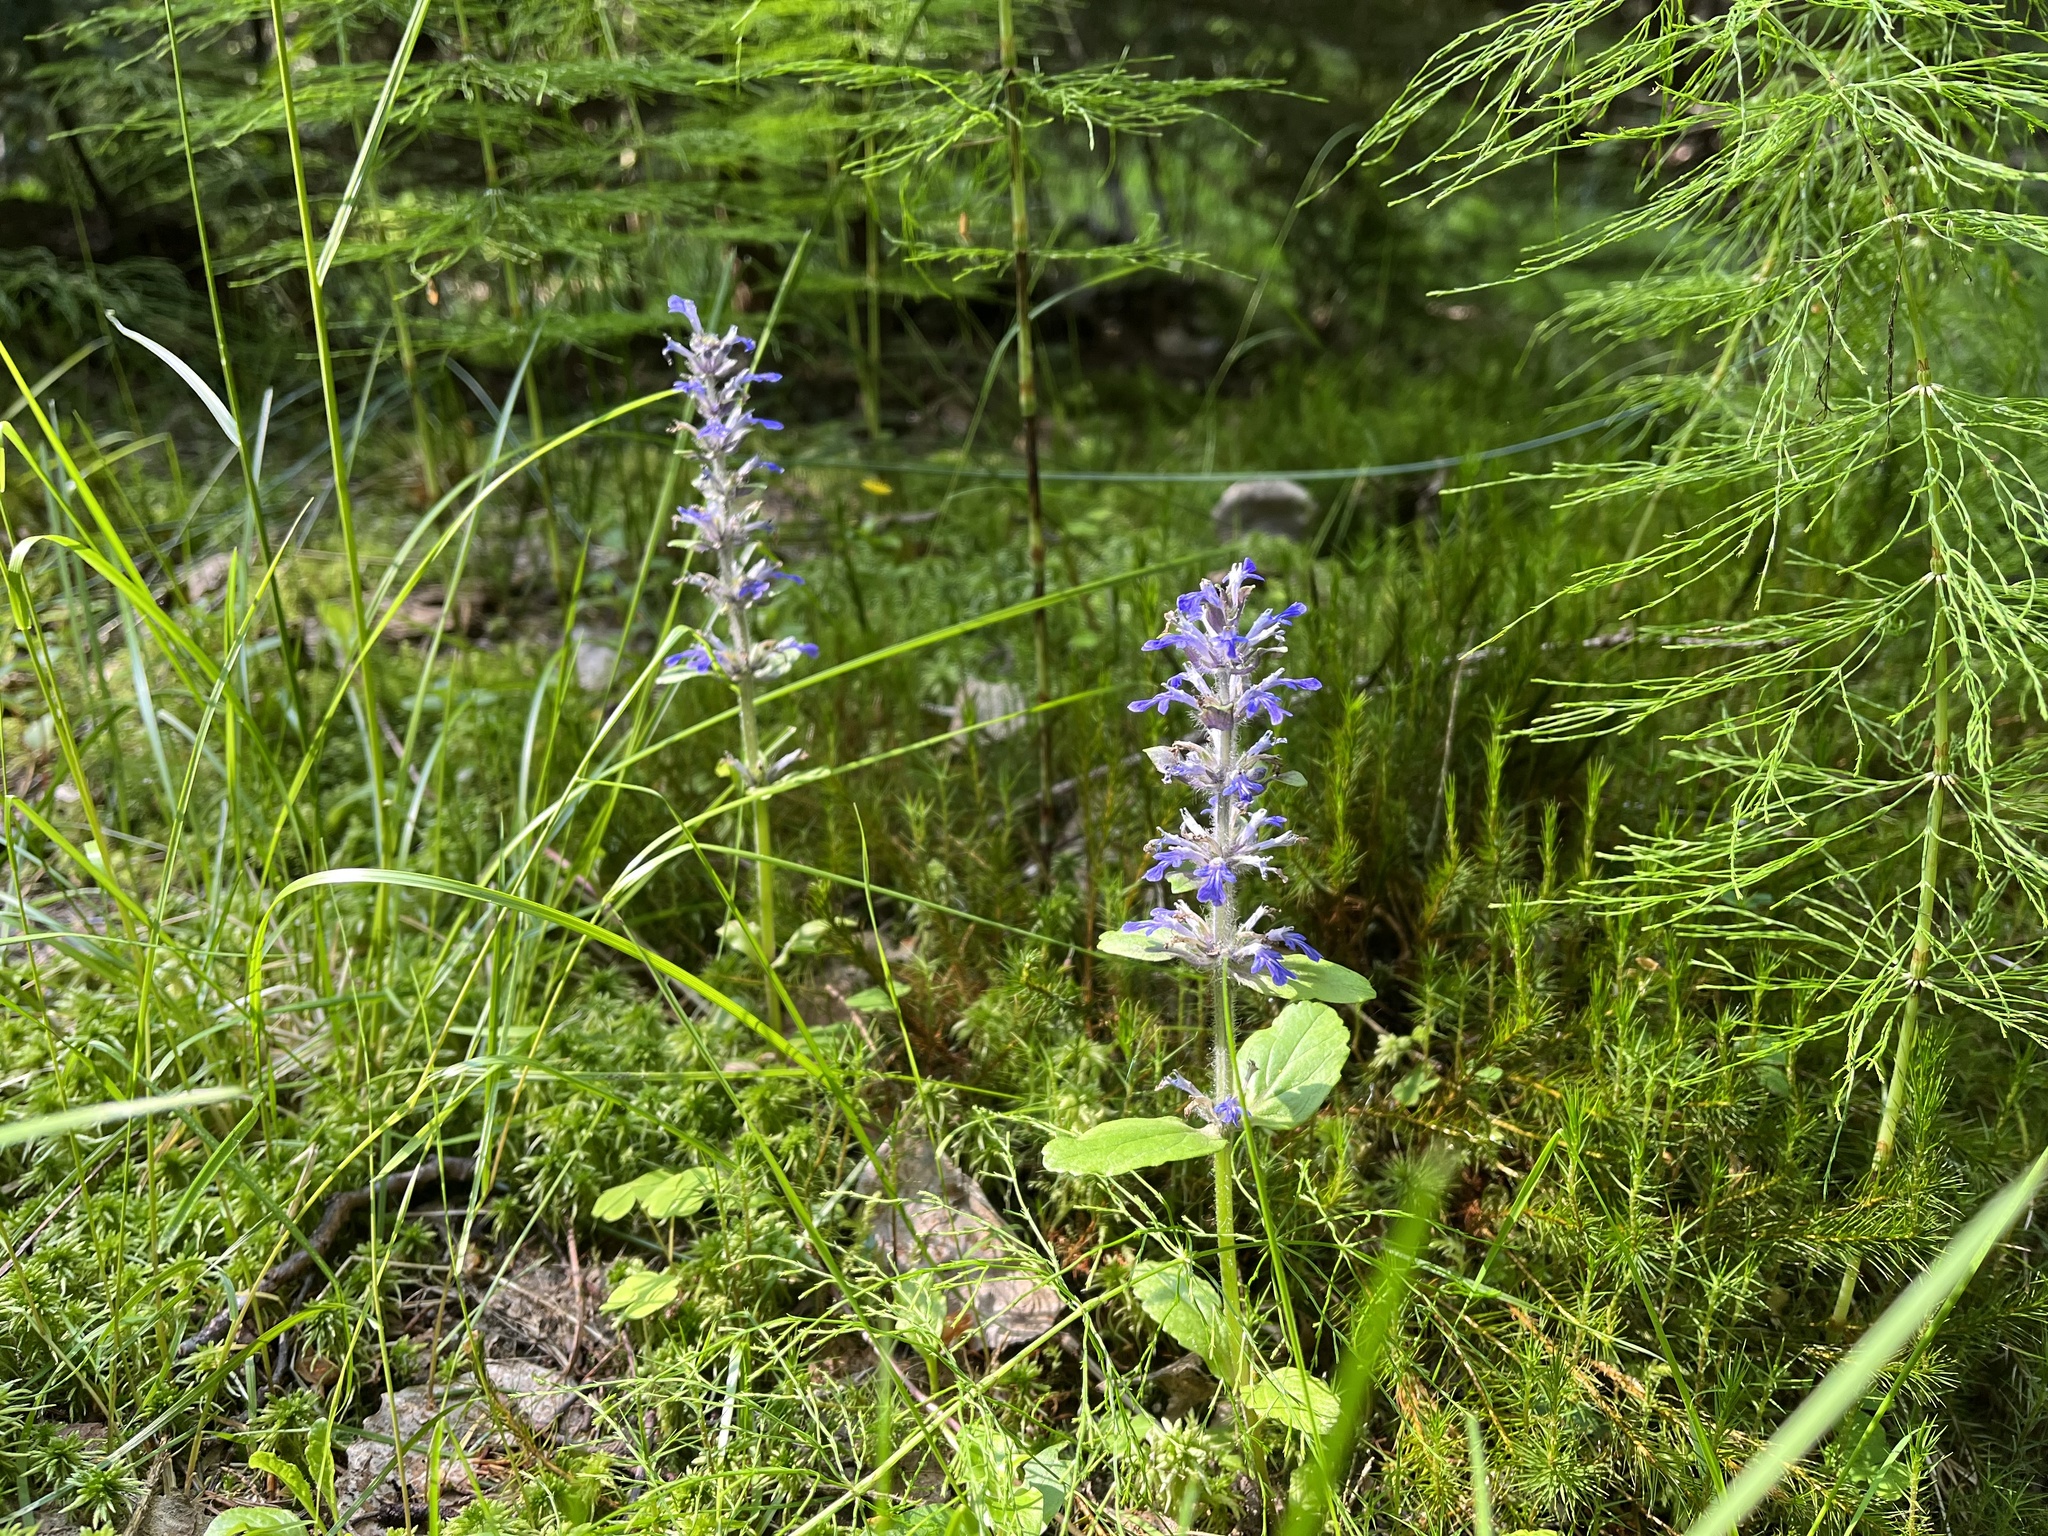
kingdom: Plantae
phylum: Tracheophyta
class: Magnoliopsida
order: Lamiales
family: Lamiaceae
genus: Ajuga
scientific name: Ajuga reptans
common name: Bugle
